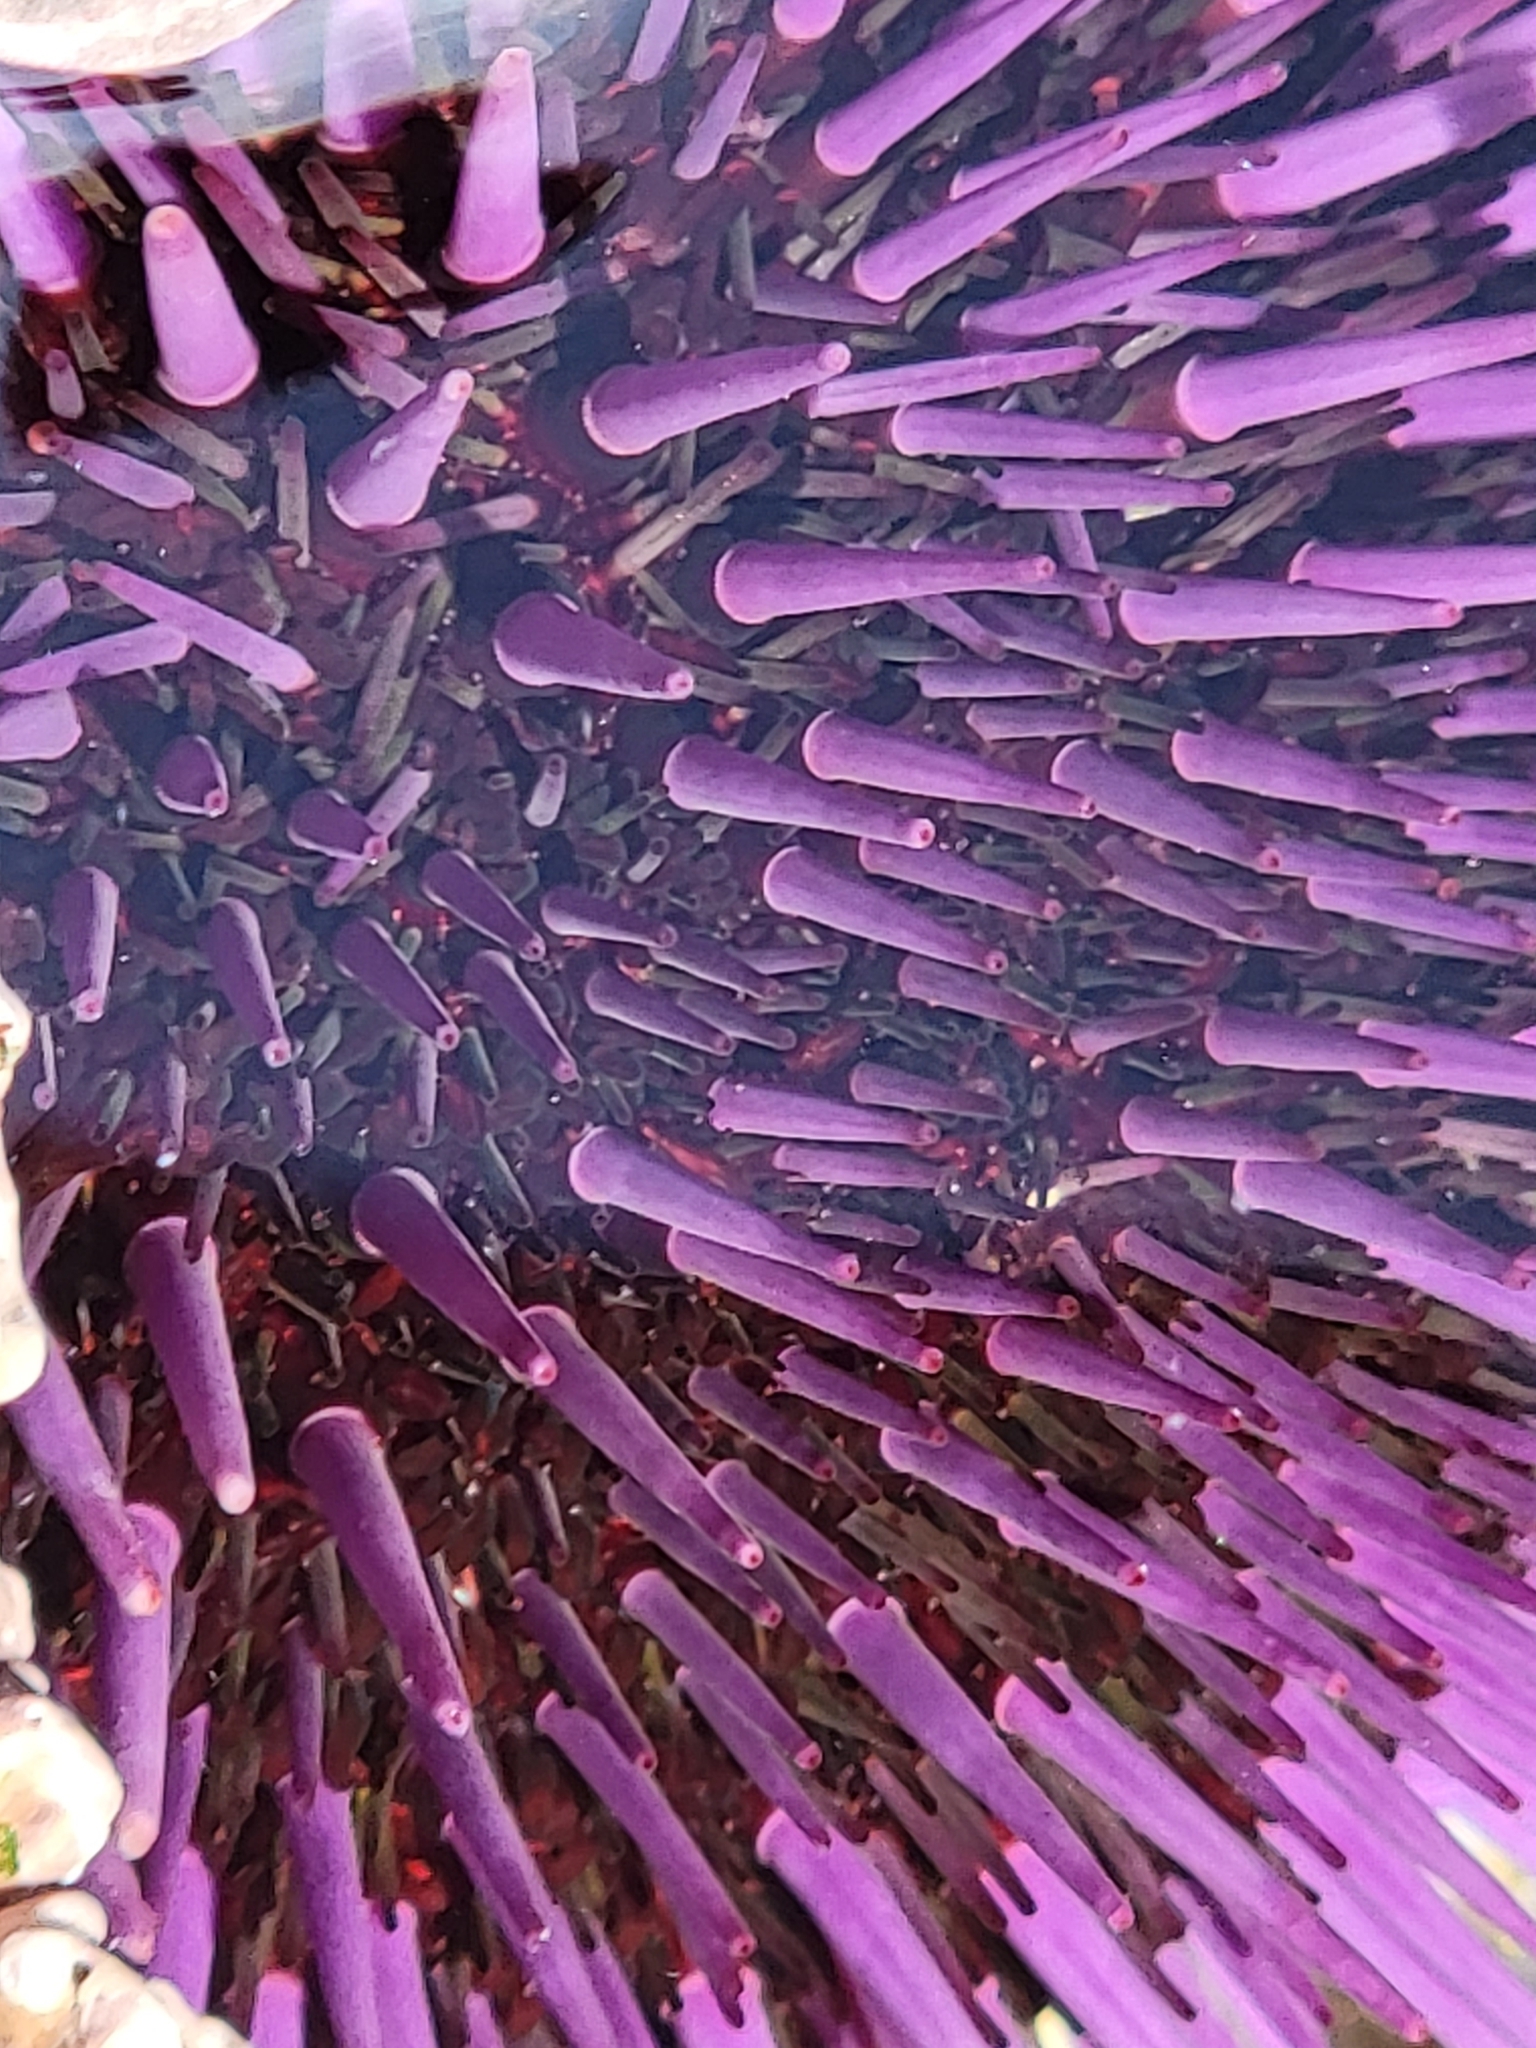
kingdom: Animalia
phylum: Echinodermata
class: Echinoidea
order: Camarodonta
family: Strongylocentrotidae
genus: Strongylocentrotus
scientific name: Strongylocentrotus purpuratus
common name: Purple sea urchin
